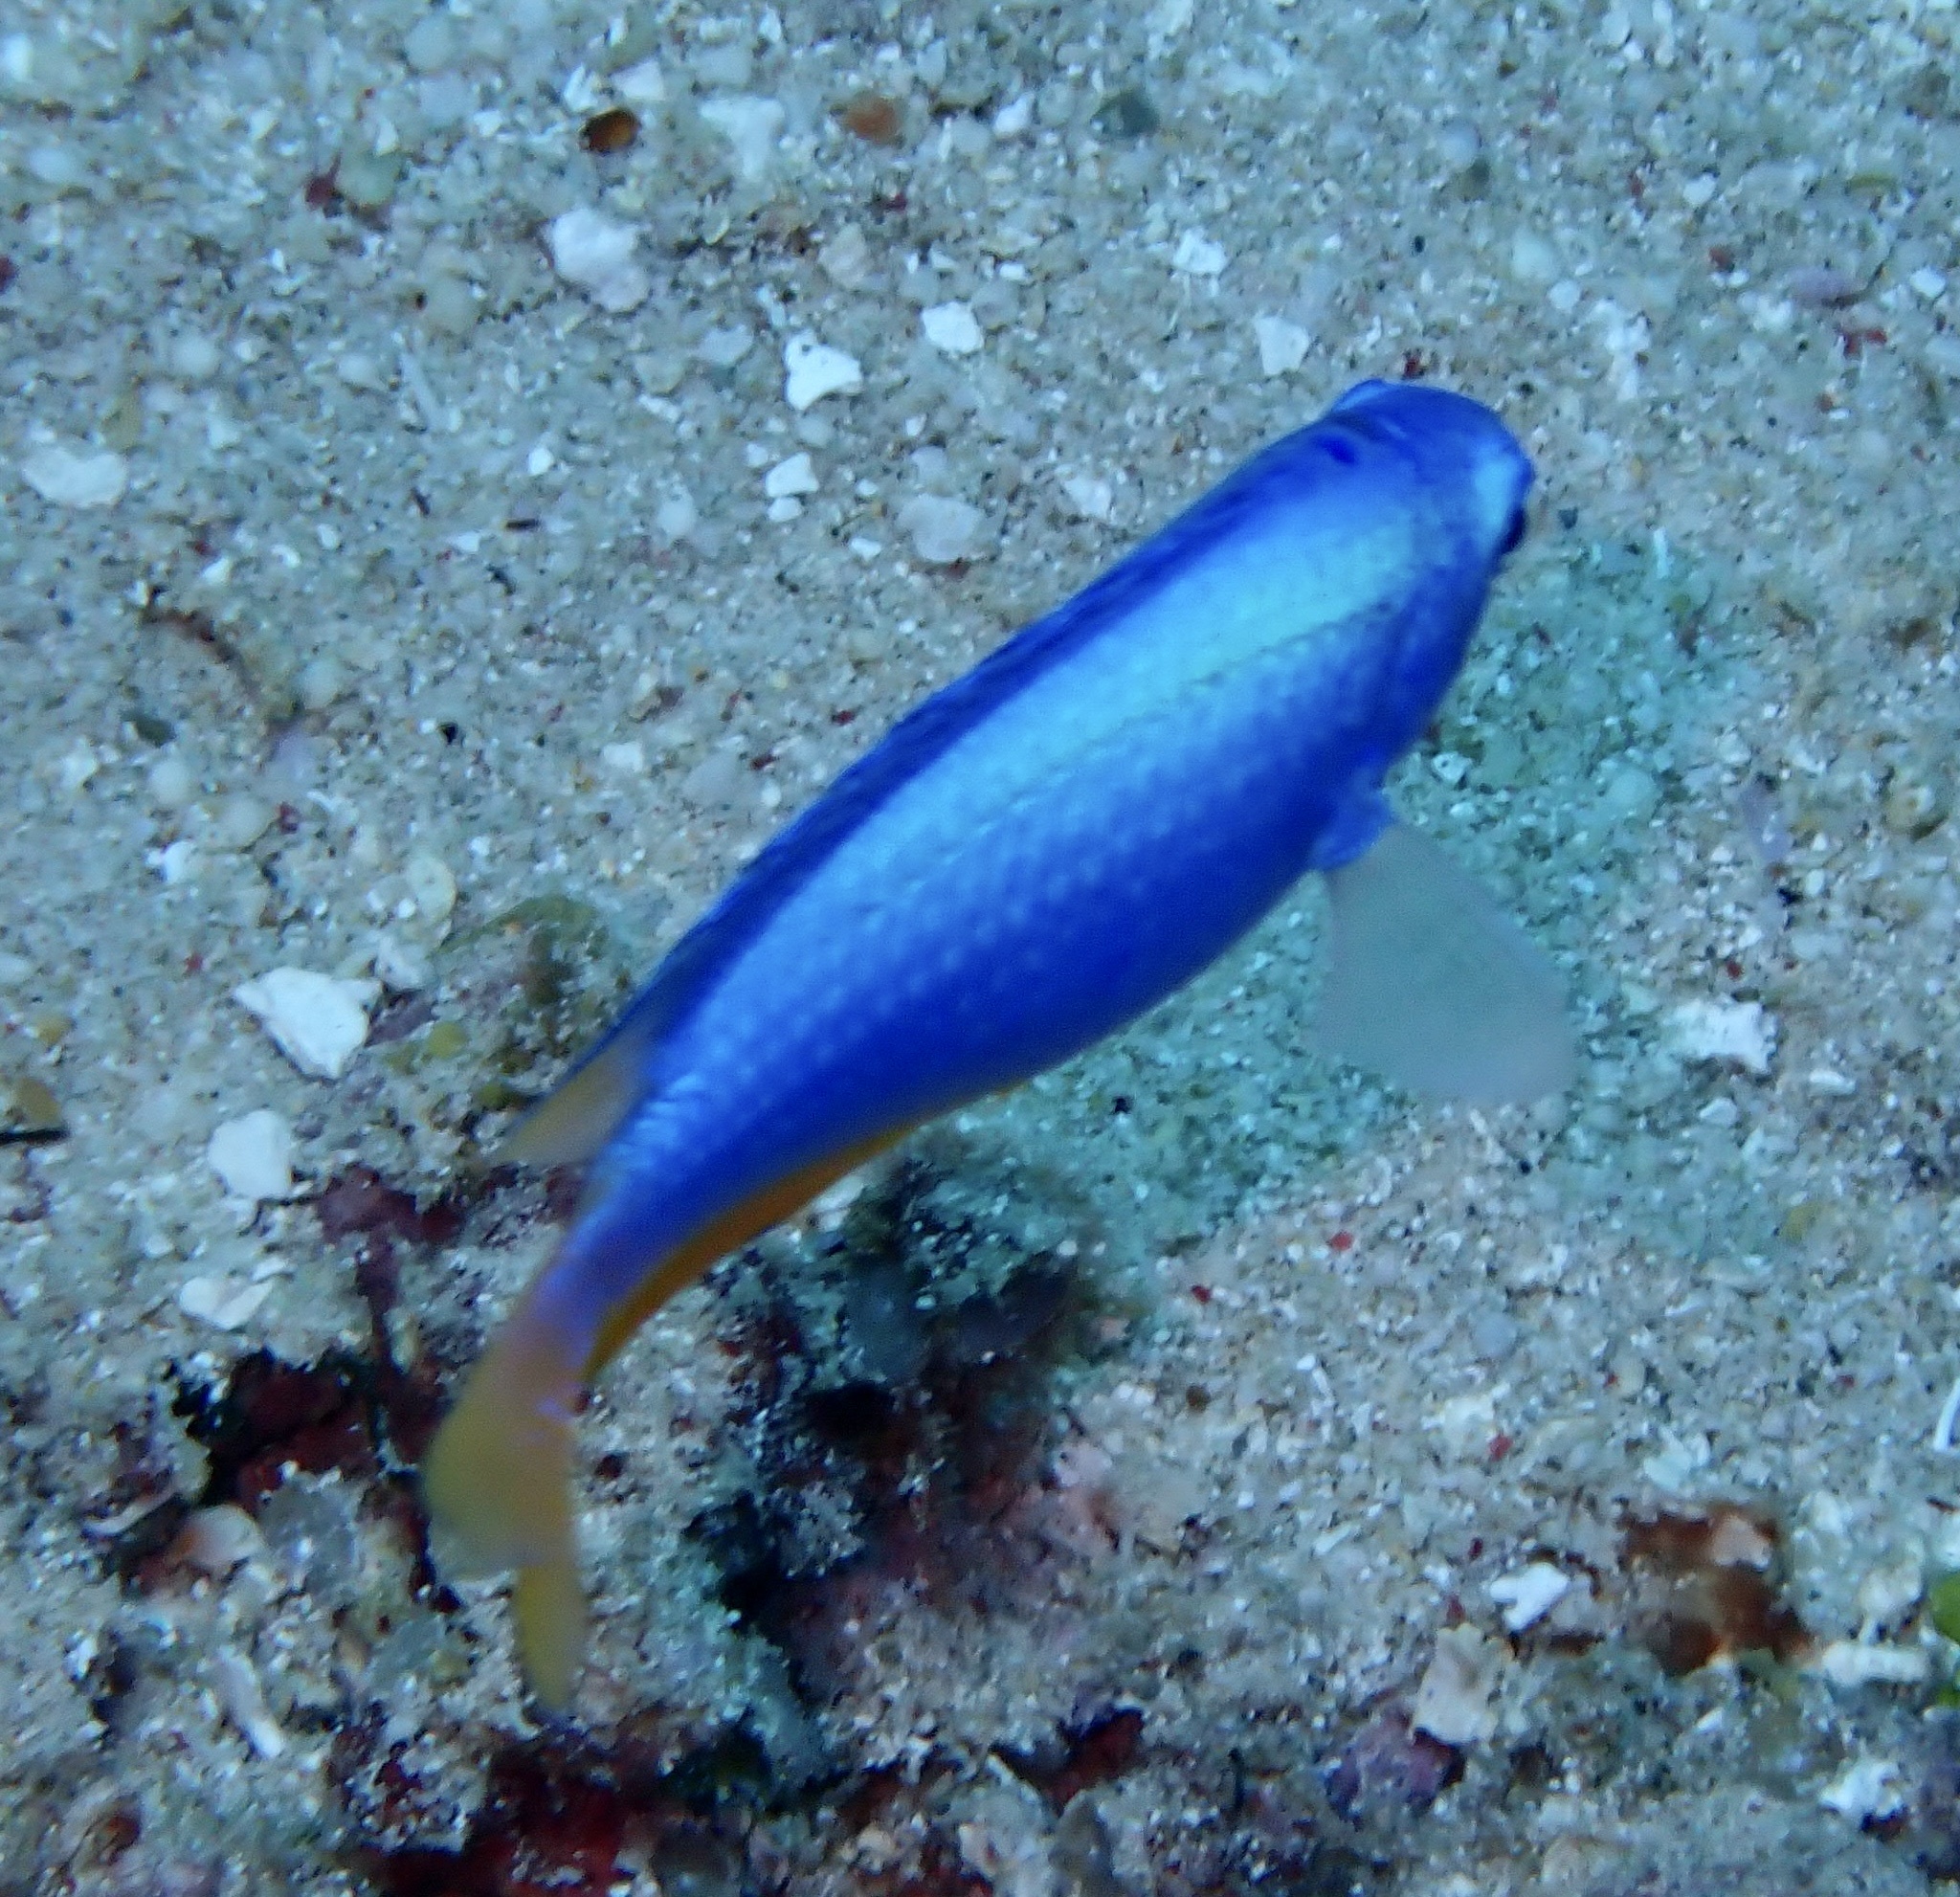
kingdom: Animalia
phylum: Chordata
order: Perciformes
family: Pomacentridae
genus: Pomacentrus
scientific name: Pomacentrus coelestis
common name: Neon damsel
